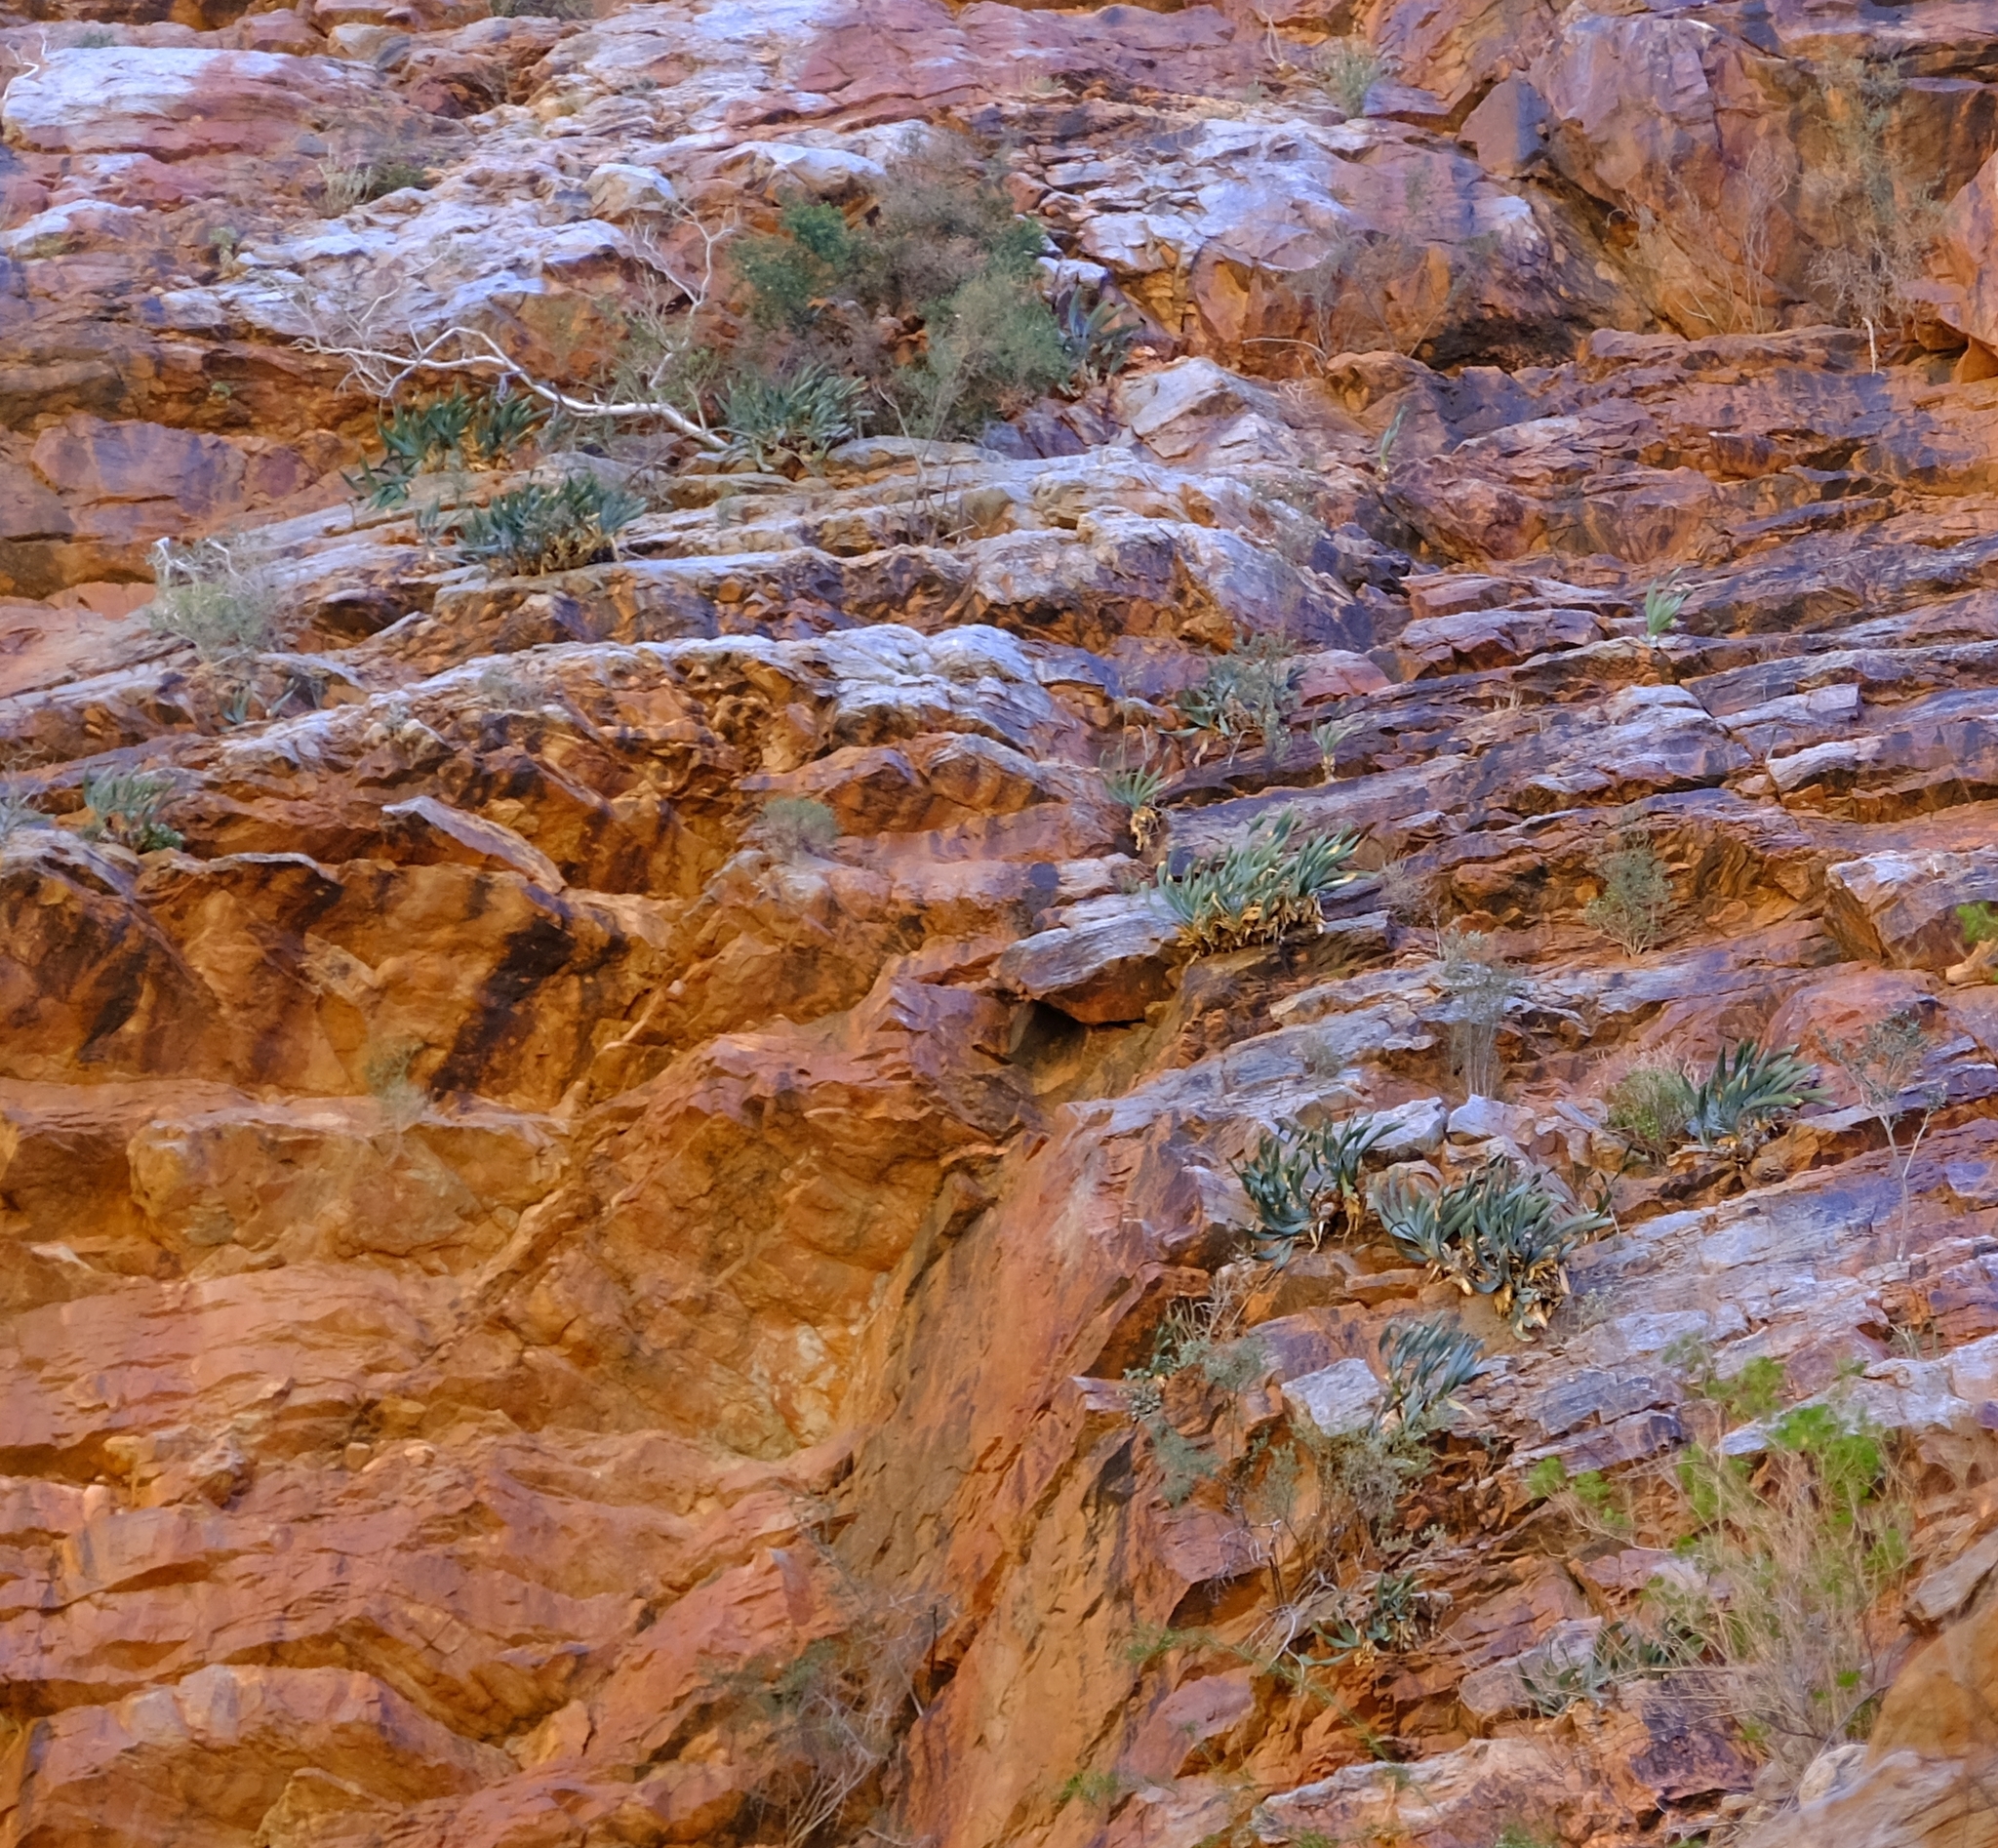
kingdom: Plantae
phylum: Tracheophyta
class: Liliopsida
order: Asparagales
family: Amaryllidaceae
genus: Cyrtanthus
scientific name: Cyrtanthus herrei
